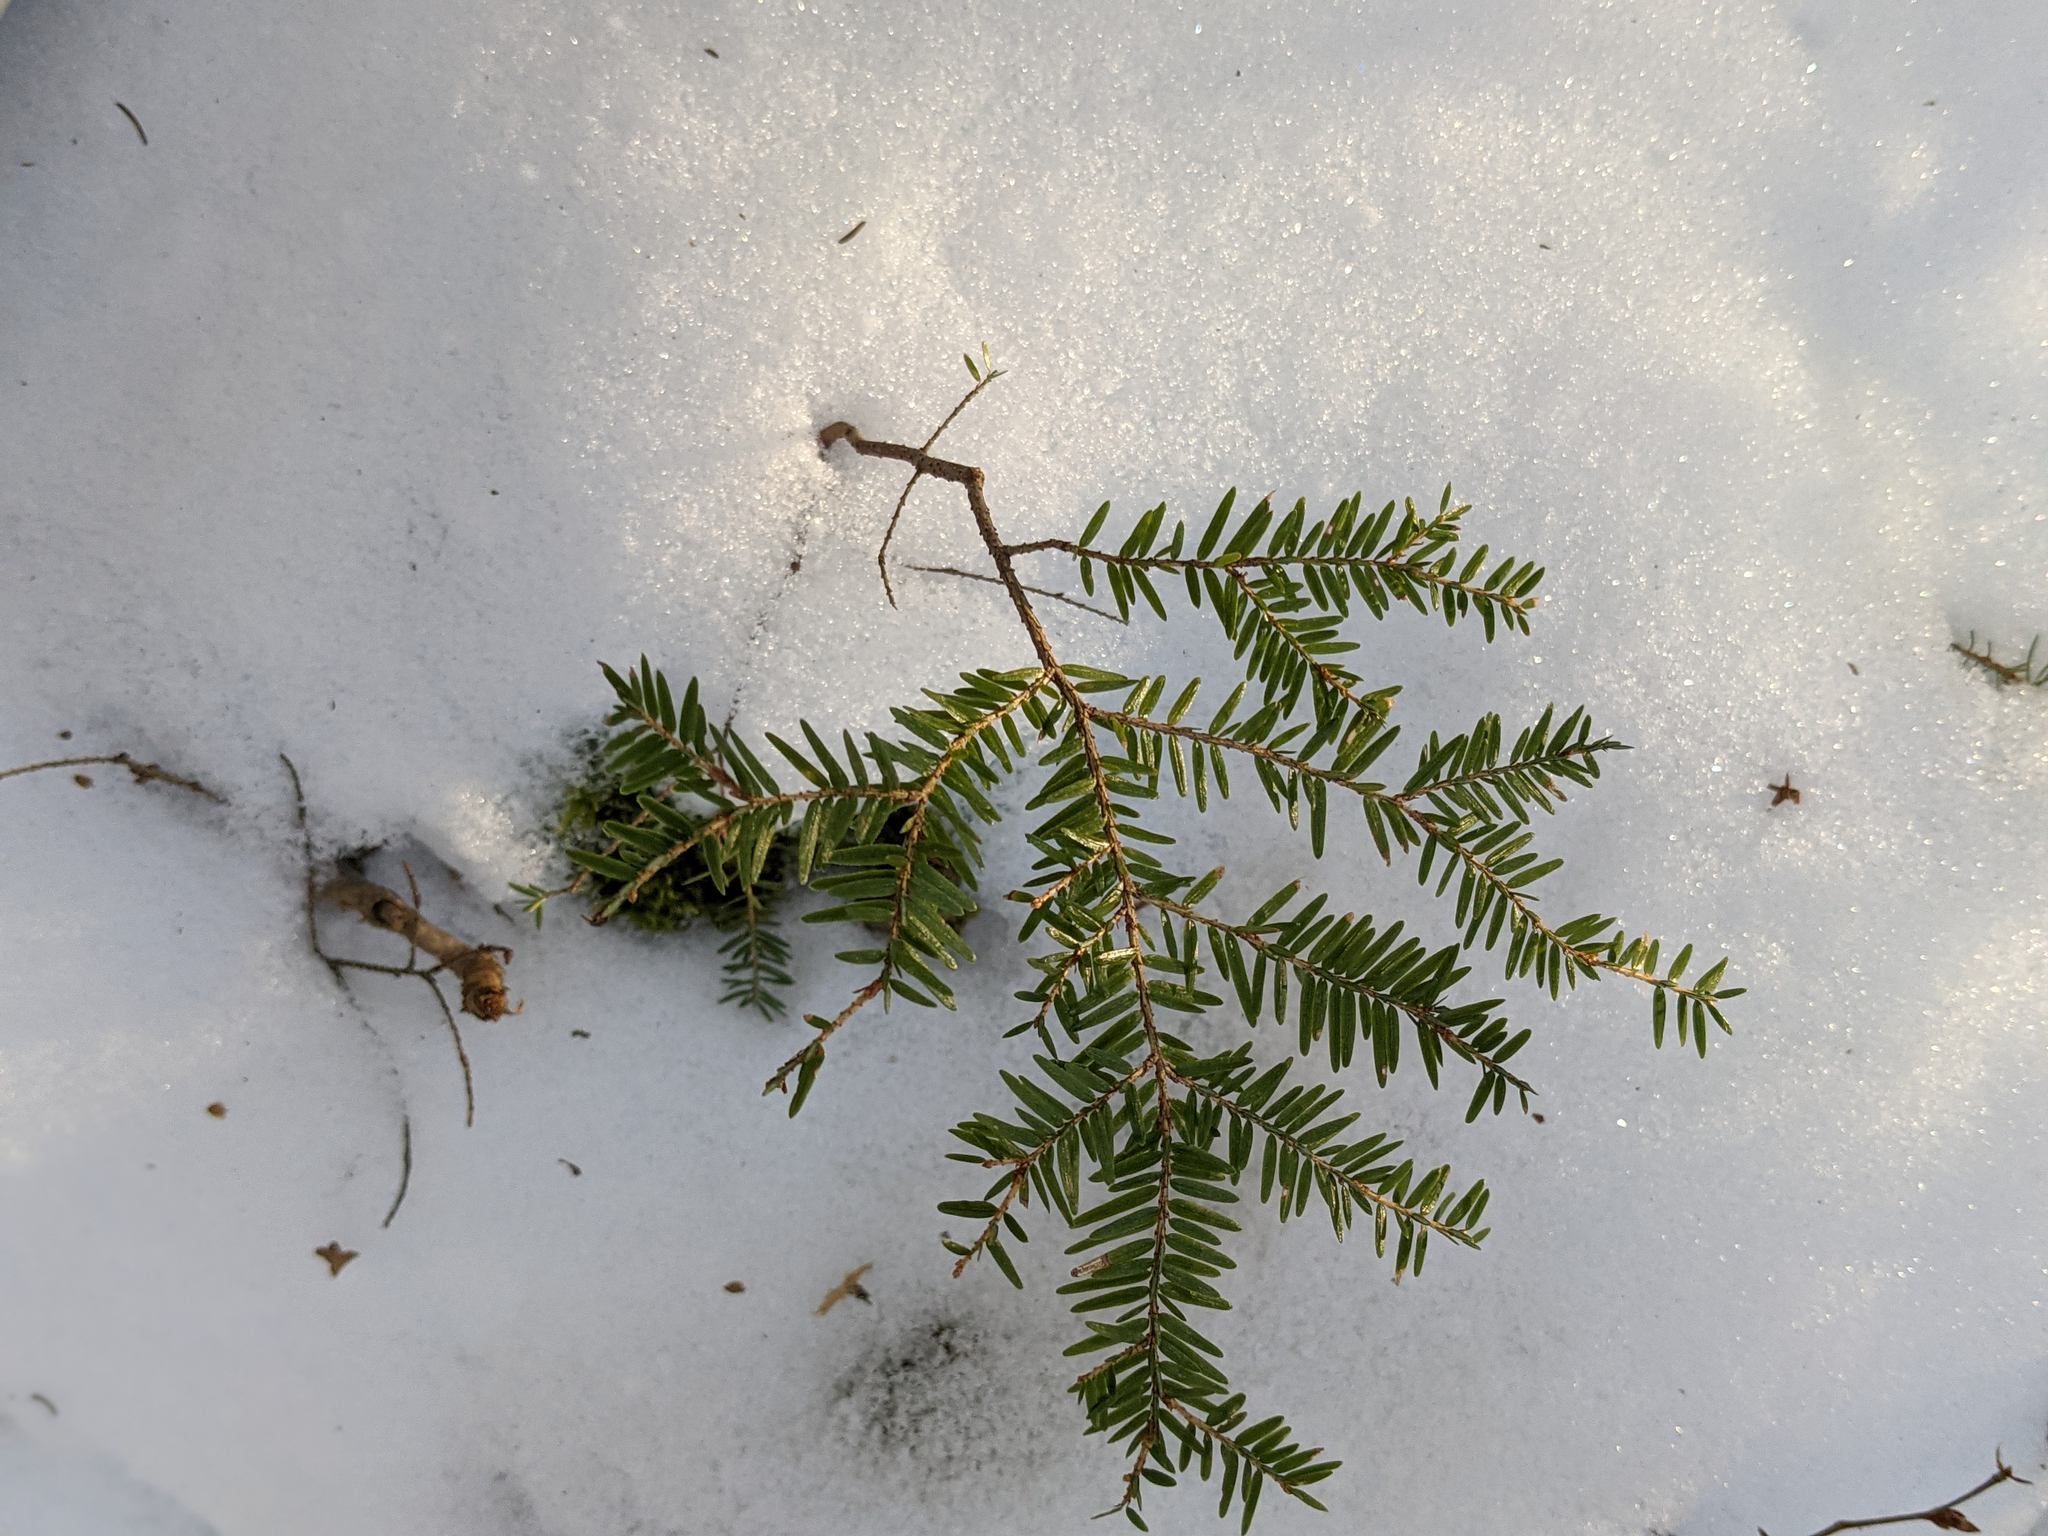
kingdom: Plantae
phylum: Tracheophyta
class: Pinopsida
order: Pinales
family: Pinaceae
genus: Tsuga
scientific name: Tsuga canadensis
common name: Eastern hemlock
